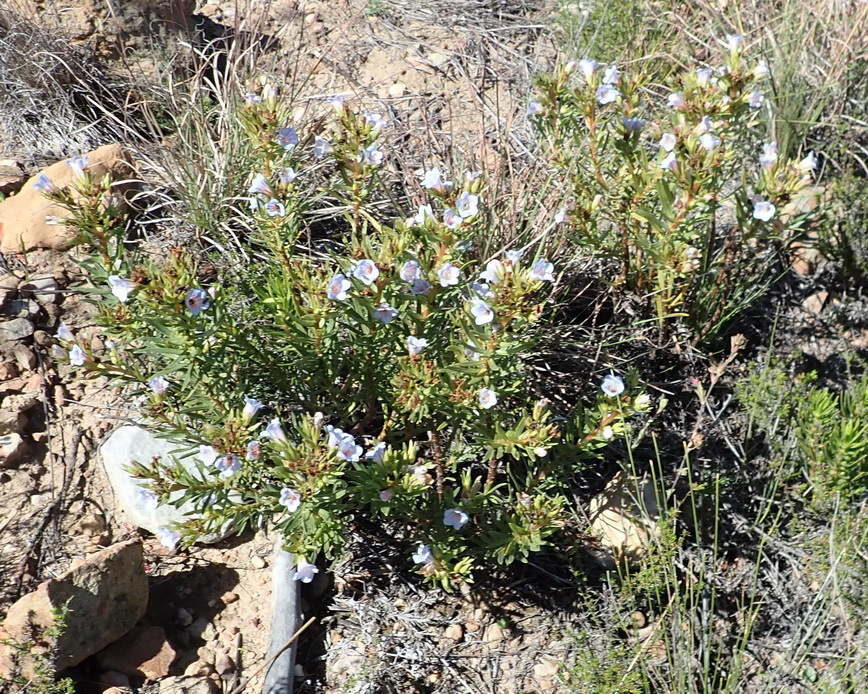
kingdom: Plantae
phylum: Tracheophyta
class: Magnoliopsida
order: Boraginales
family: Boraginaceae
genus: Lobostemon
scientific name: Lobostemon fruticosus
